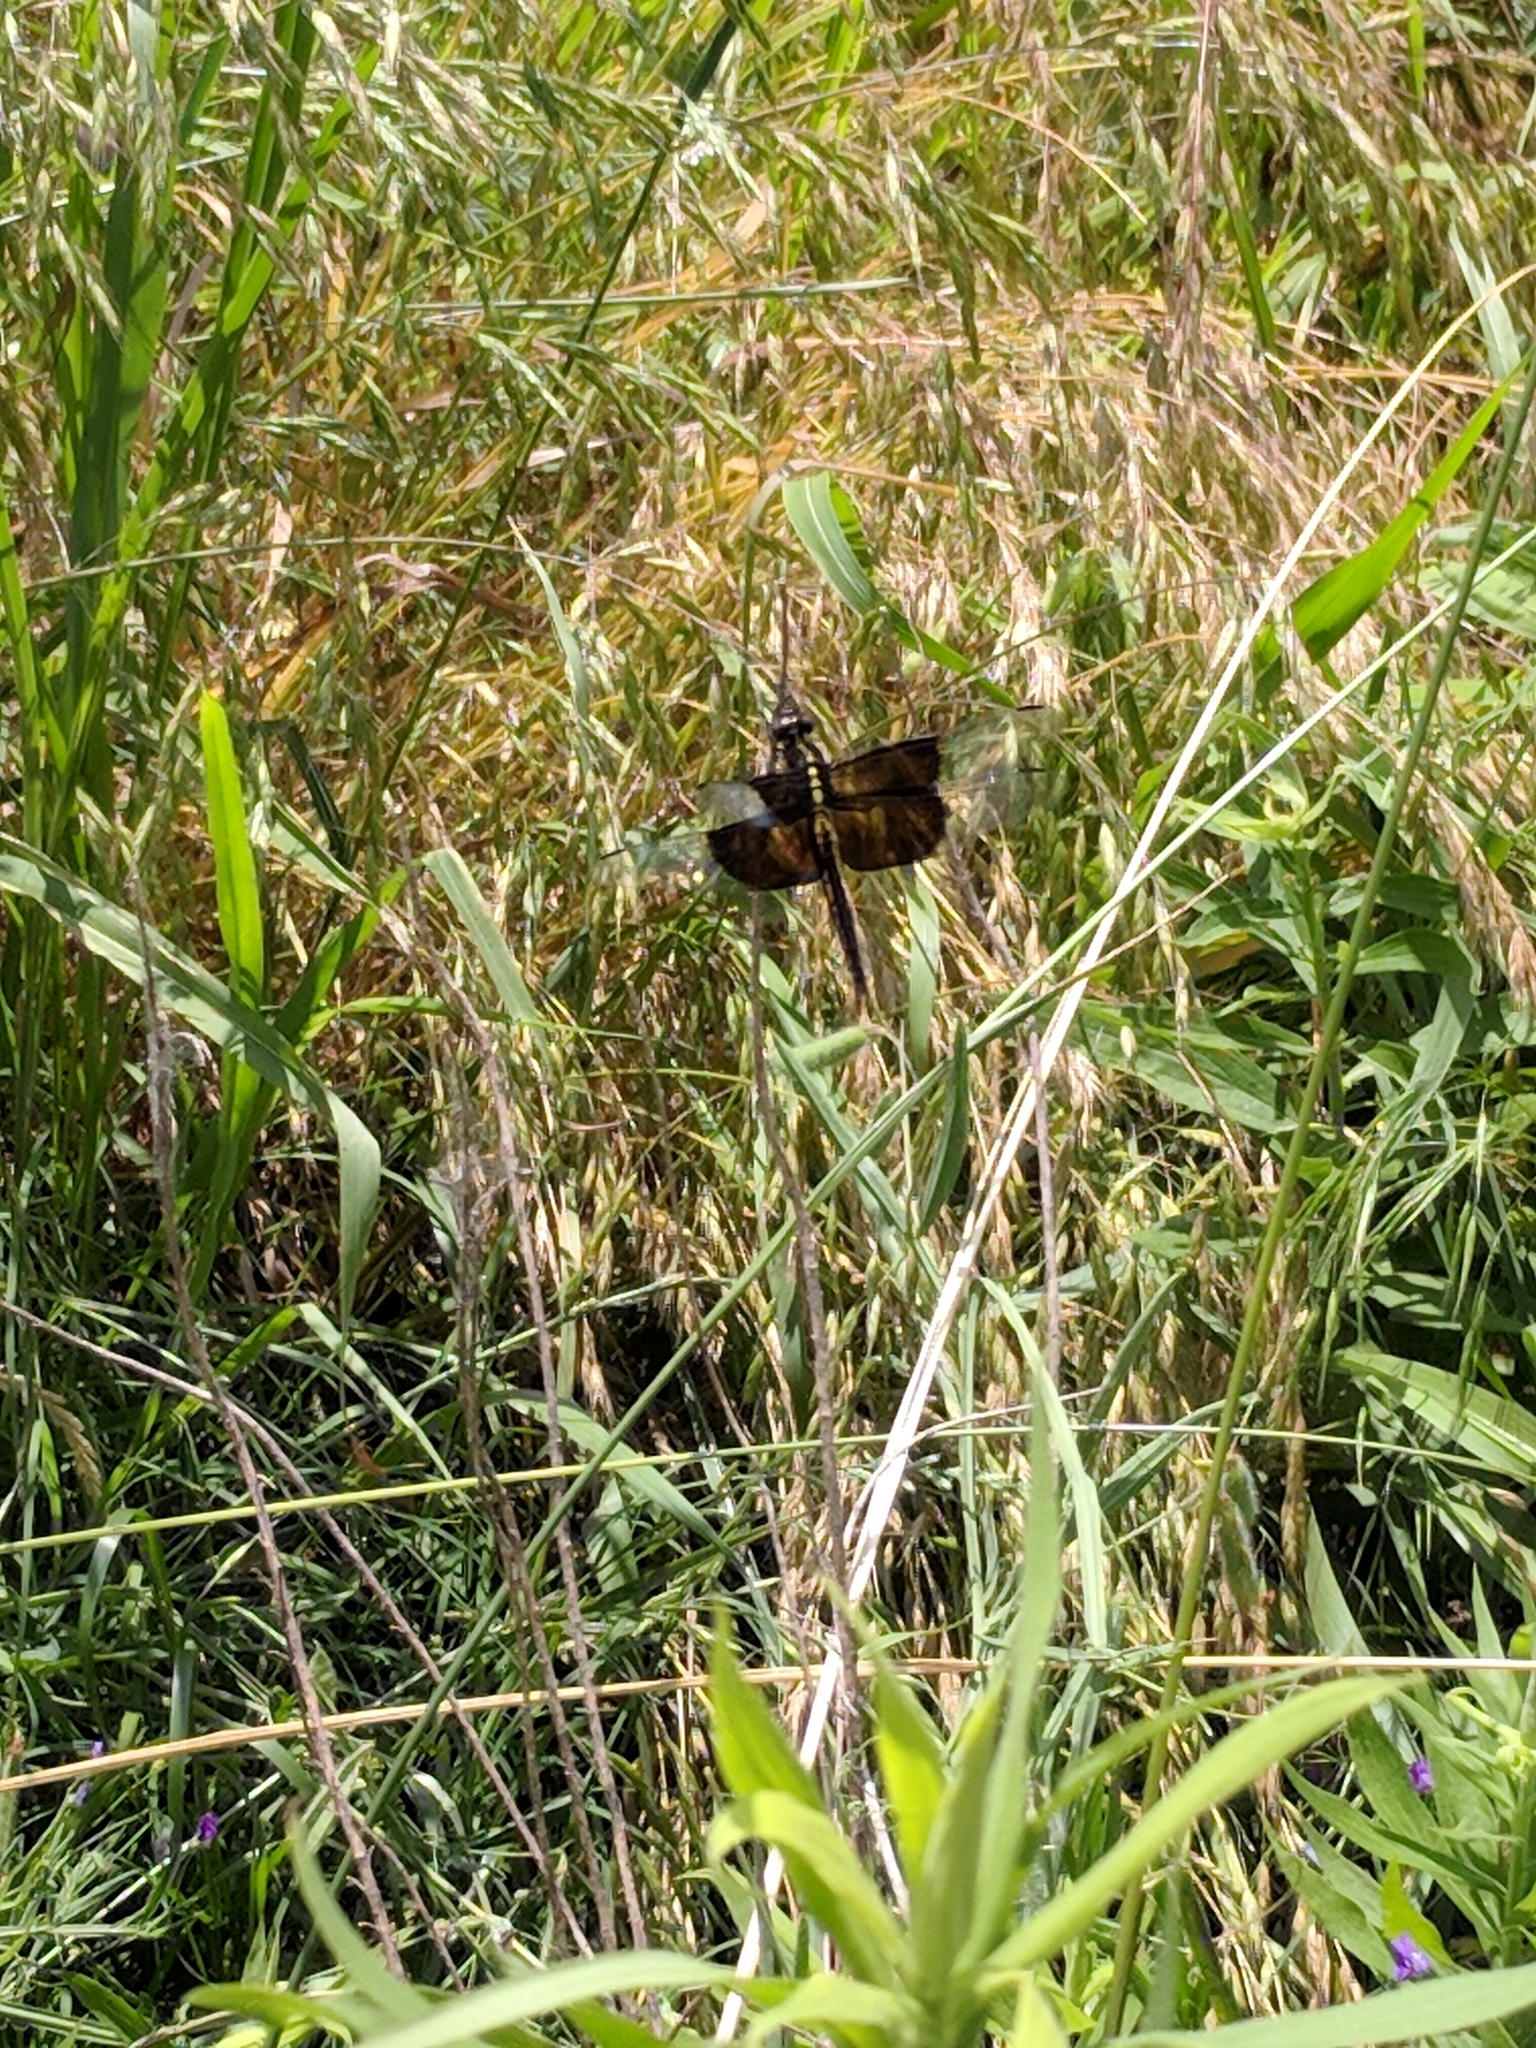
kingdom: Animalia
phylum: Arthropoda
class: Insecta
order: Odonata
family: Libellulidae
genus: Libellula
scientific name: Libellula luctuosa
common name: Widow skimmer
